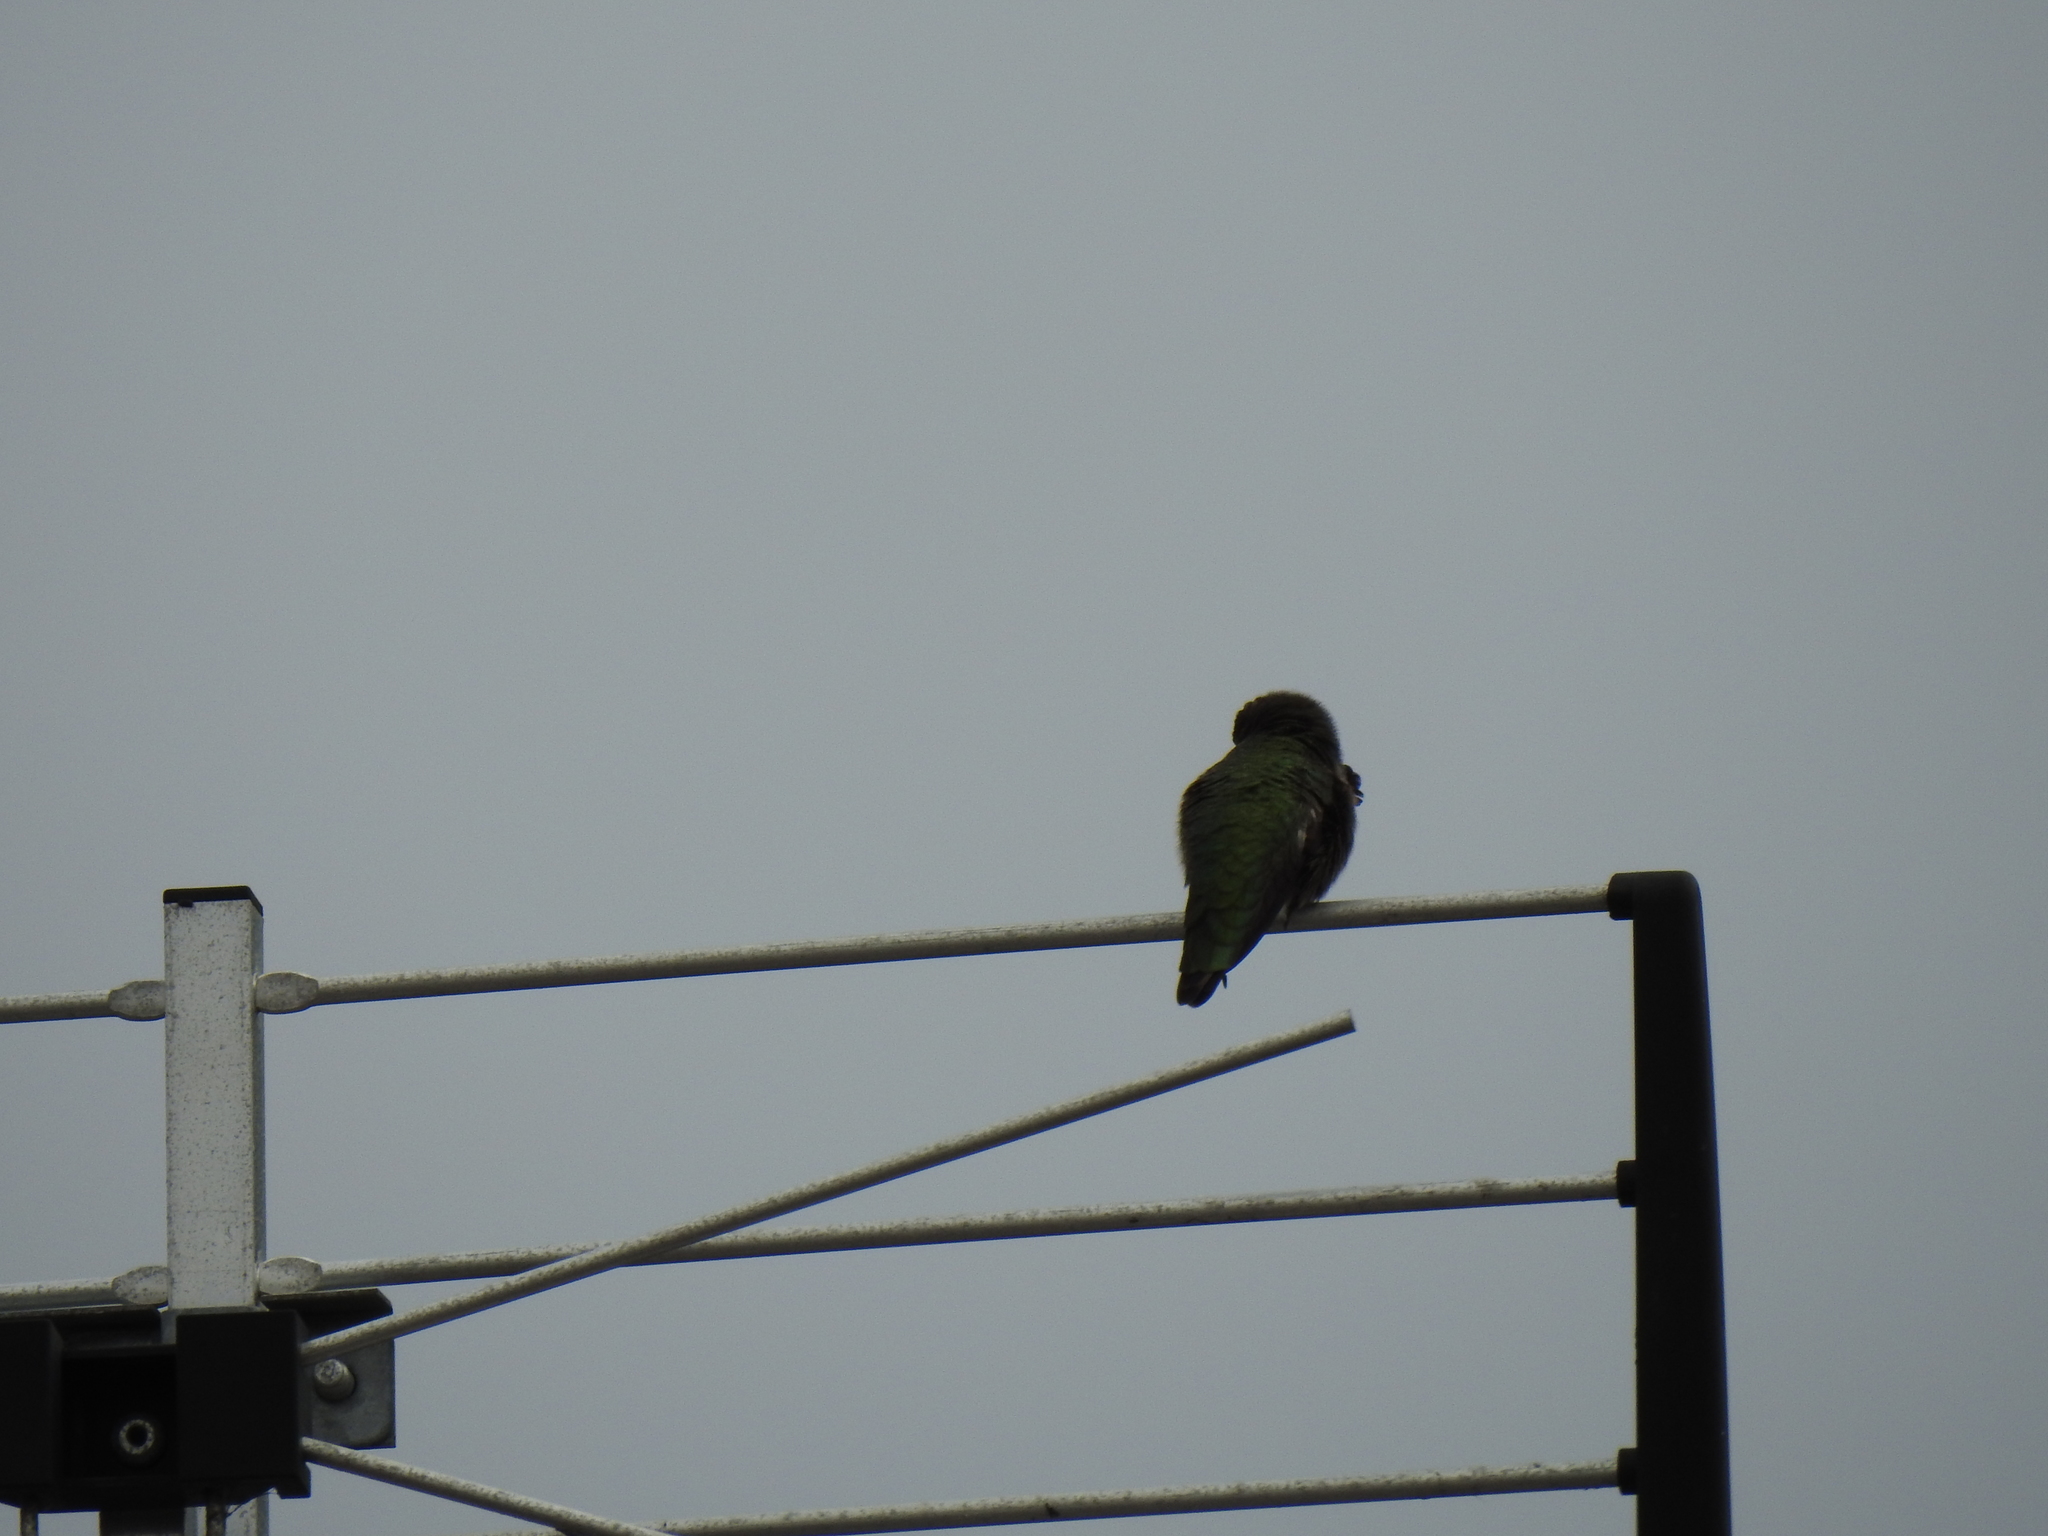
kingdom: Animalia
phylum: Chordata
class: Aves
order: Apodiformes
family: Trochilidae
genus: Calypte
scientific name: Calypte anna
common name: Anna's hummingbird
